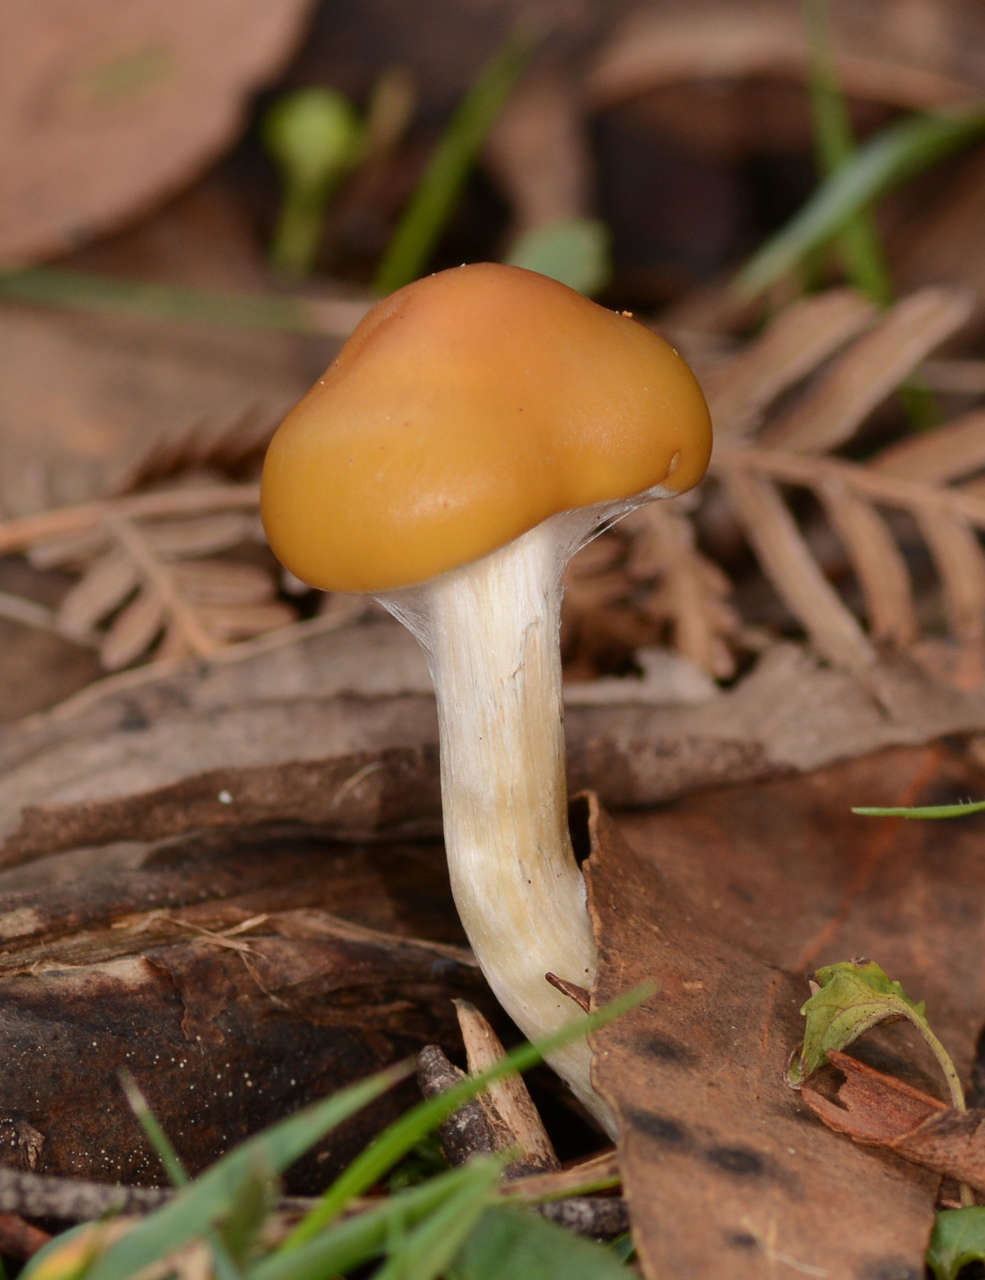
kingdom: Fungi
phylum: Basidiomycota
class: Agaricomycetes
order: Agaricales
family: Hymenogastraceae
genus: Psilocybe
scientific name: Psilocybe subaeruginosa
